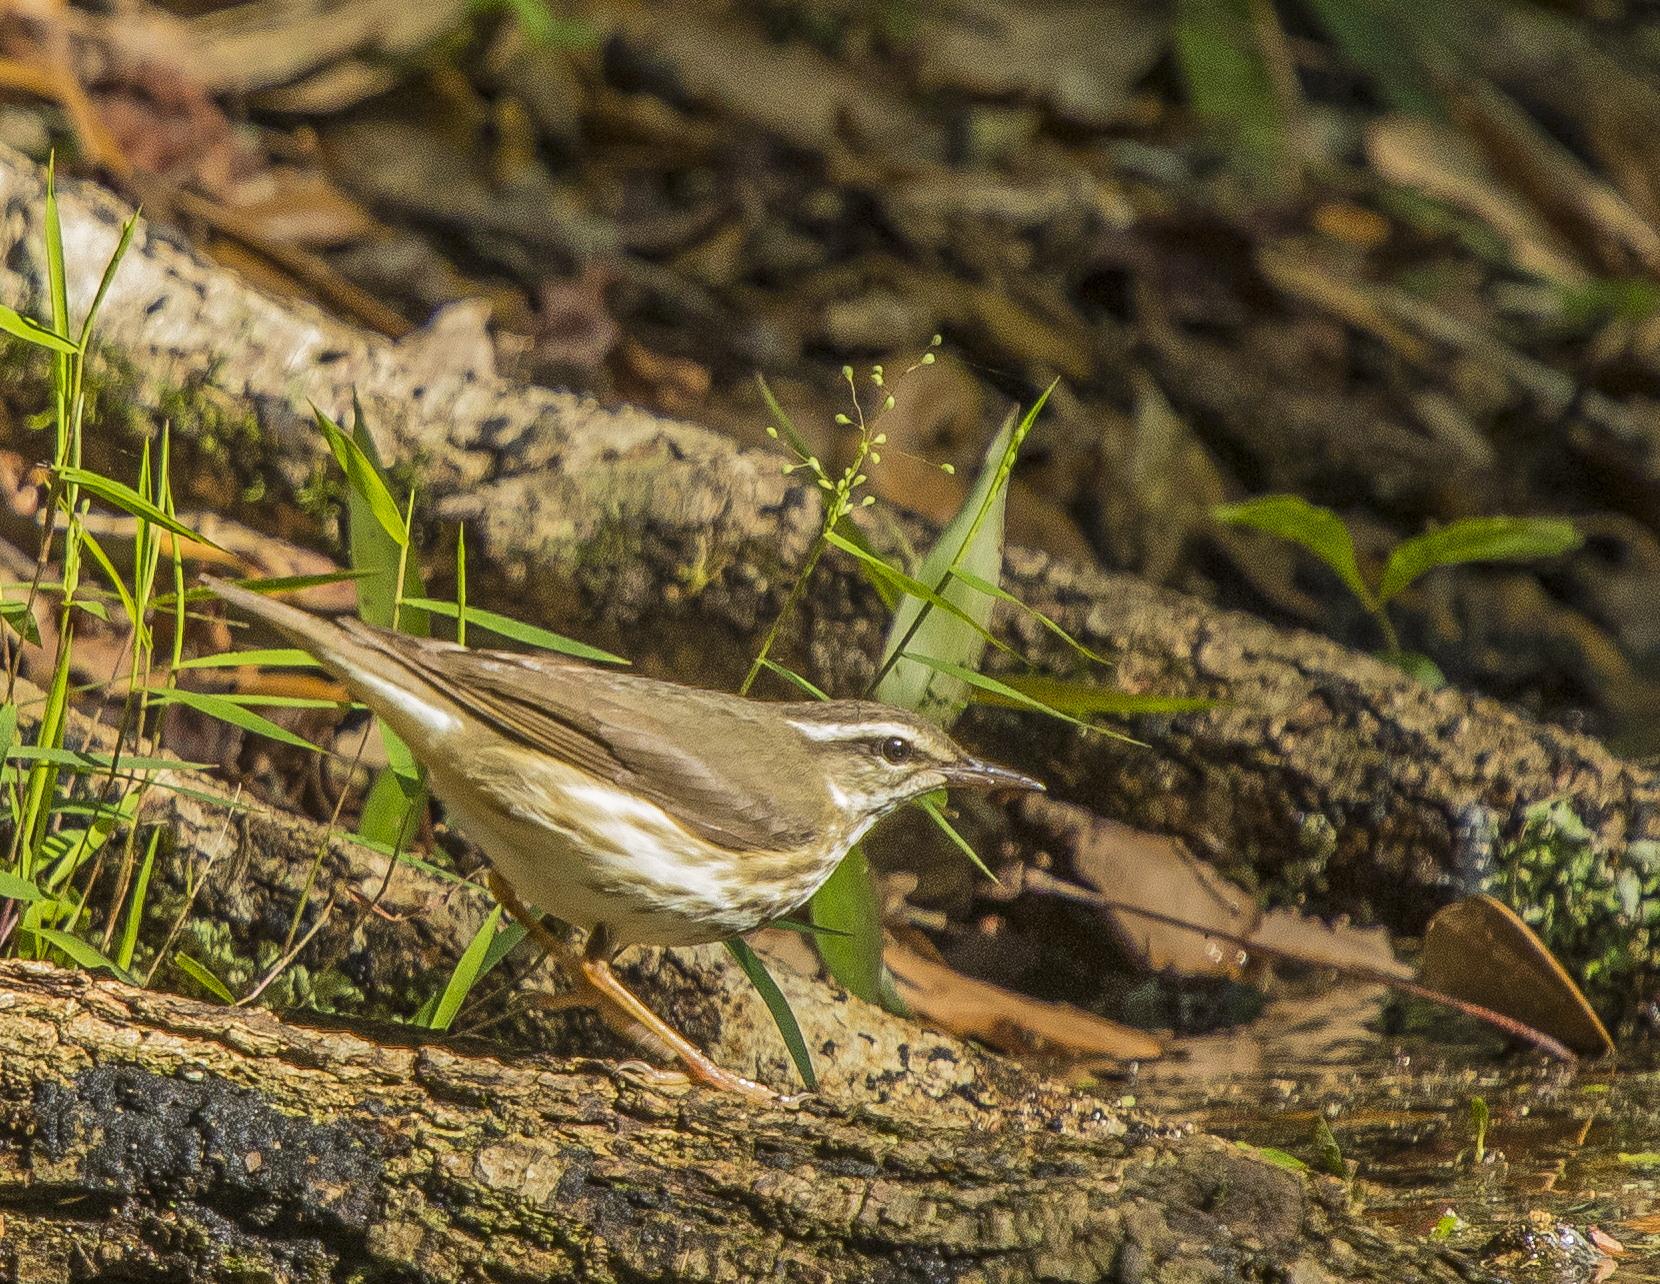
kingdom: Animalia
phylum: Chordata
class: Aves
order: Passeriformes
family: Parulidae
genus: Parkesia
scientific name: Parkesia motacilla
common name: Louisiana waterthrush
